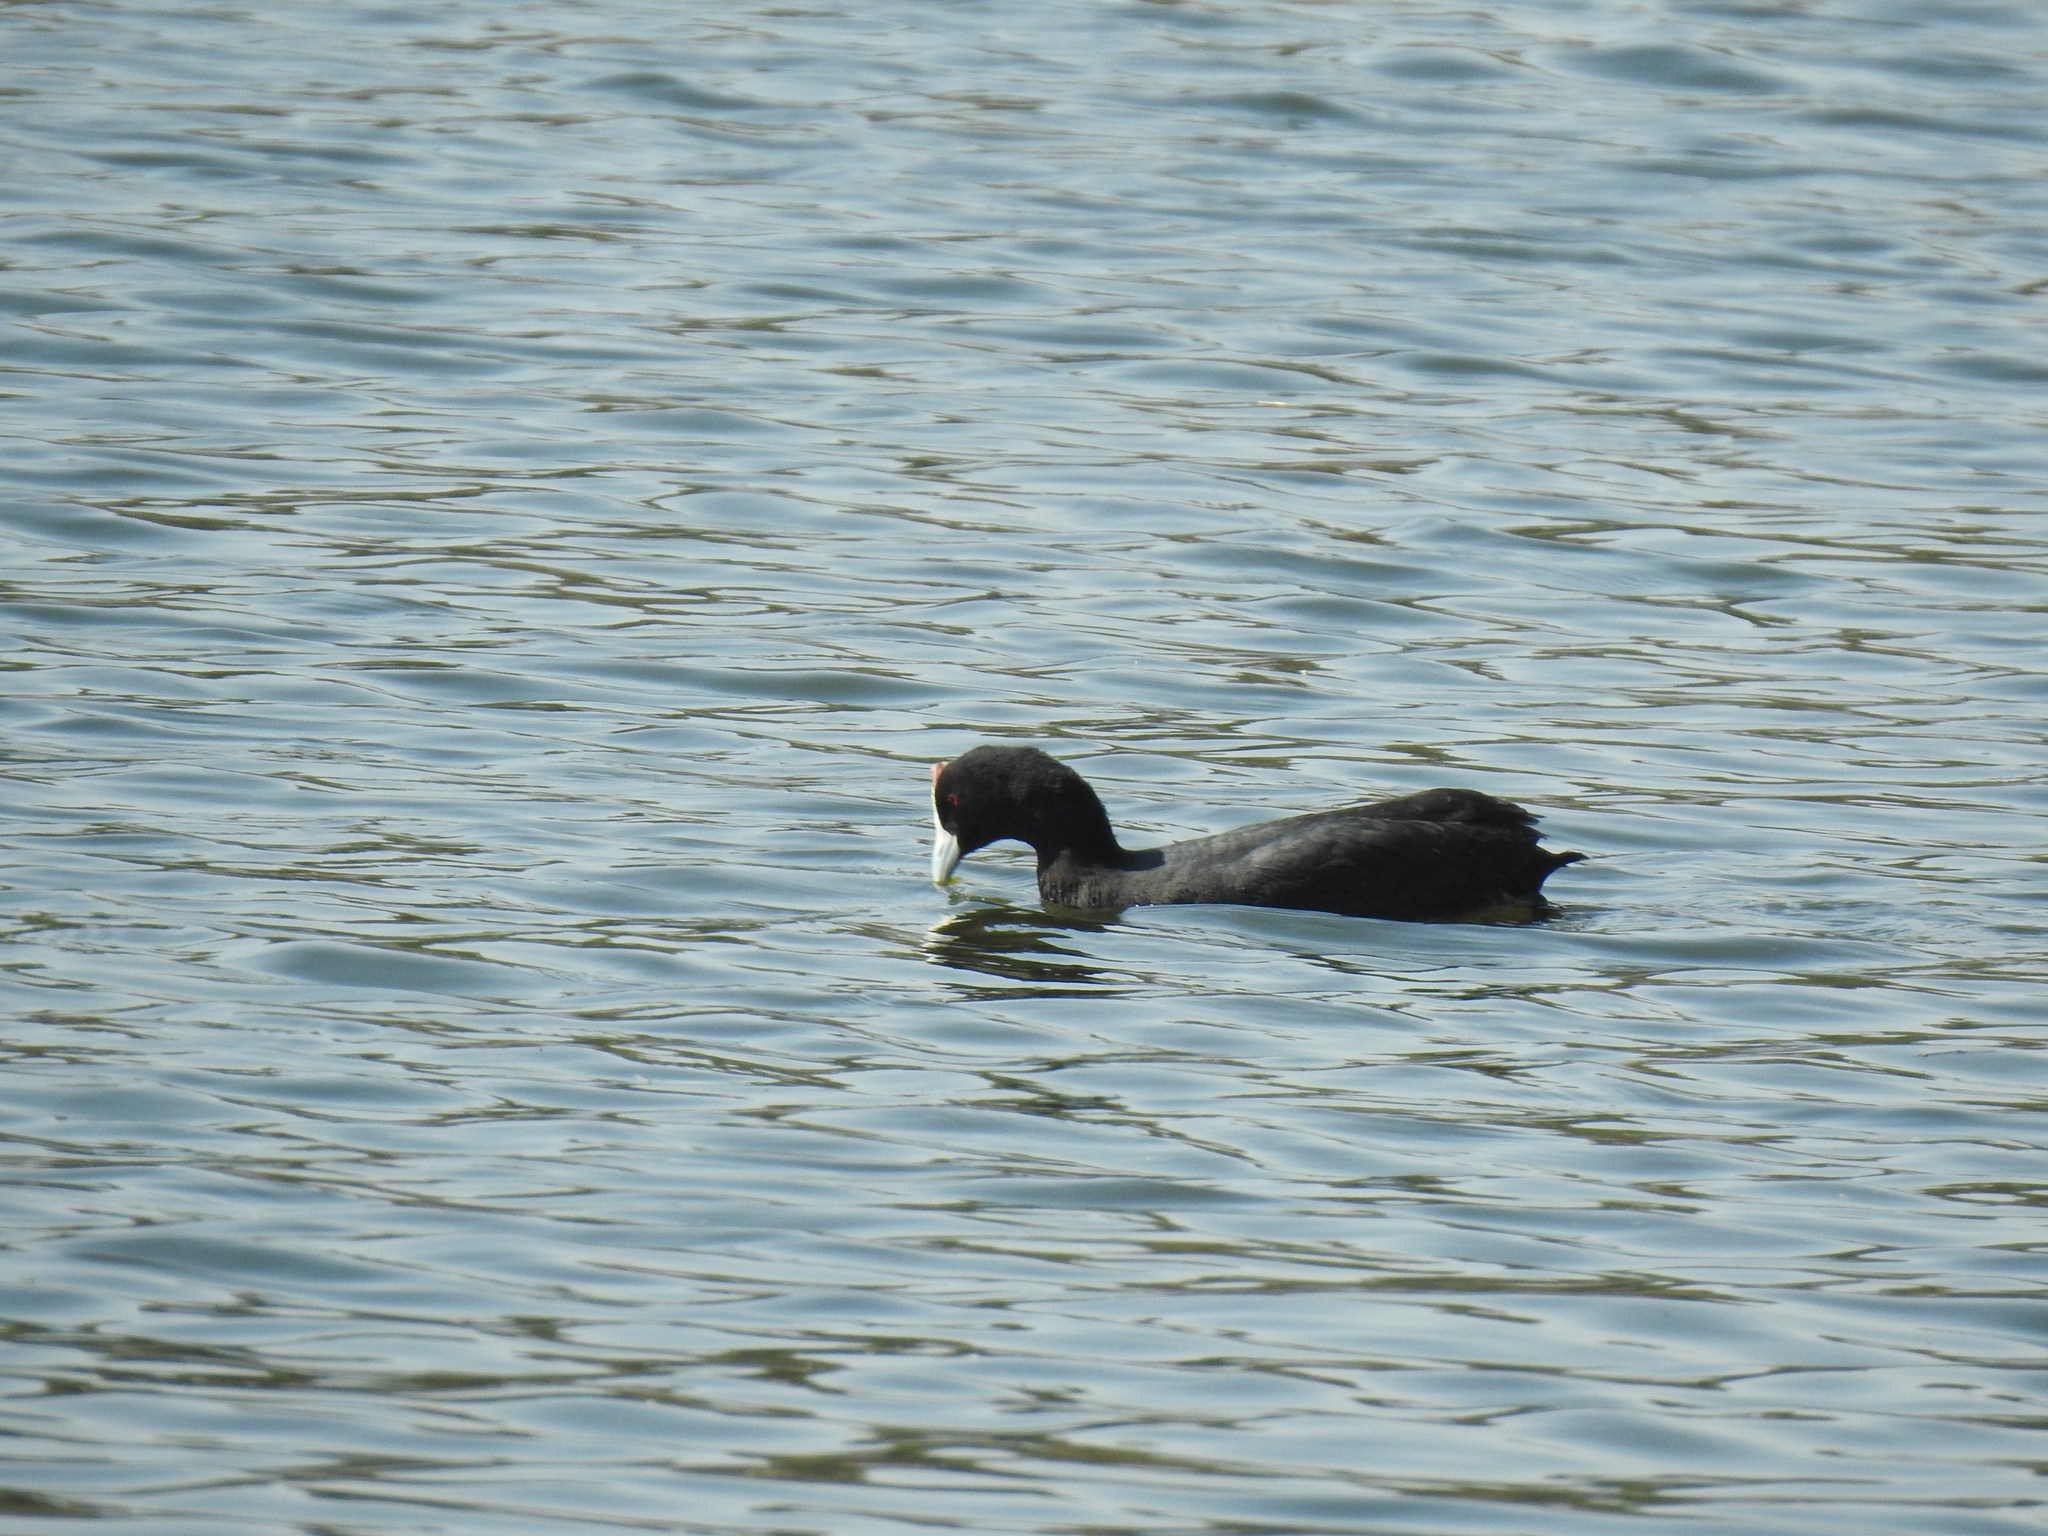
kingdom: Animalia
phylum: Chordata
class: Aves
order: Gruiformes
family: Rallidae
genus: Fulica
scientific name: Fulica cristata
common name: Red-knobbed coot
